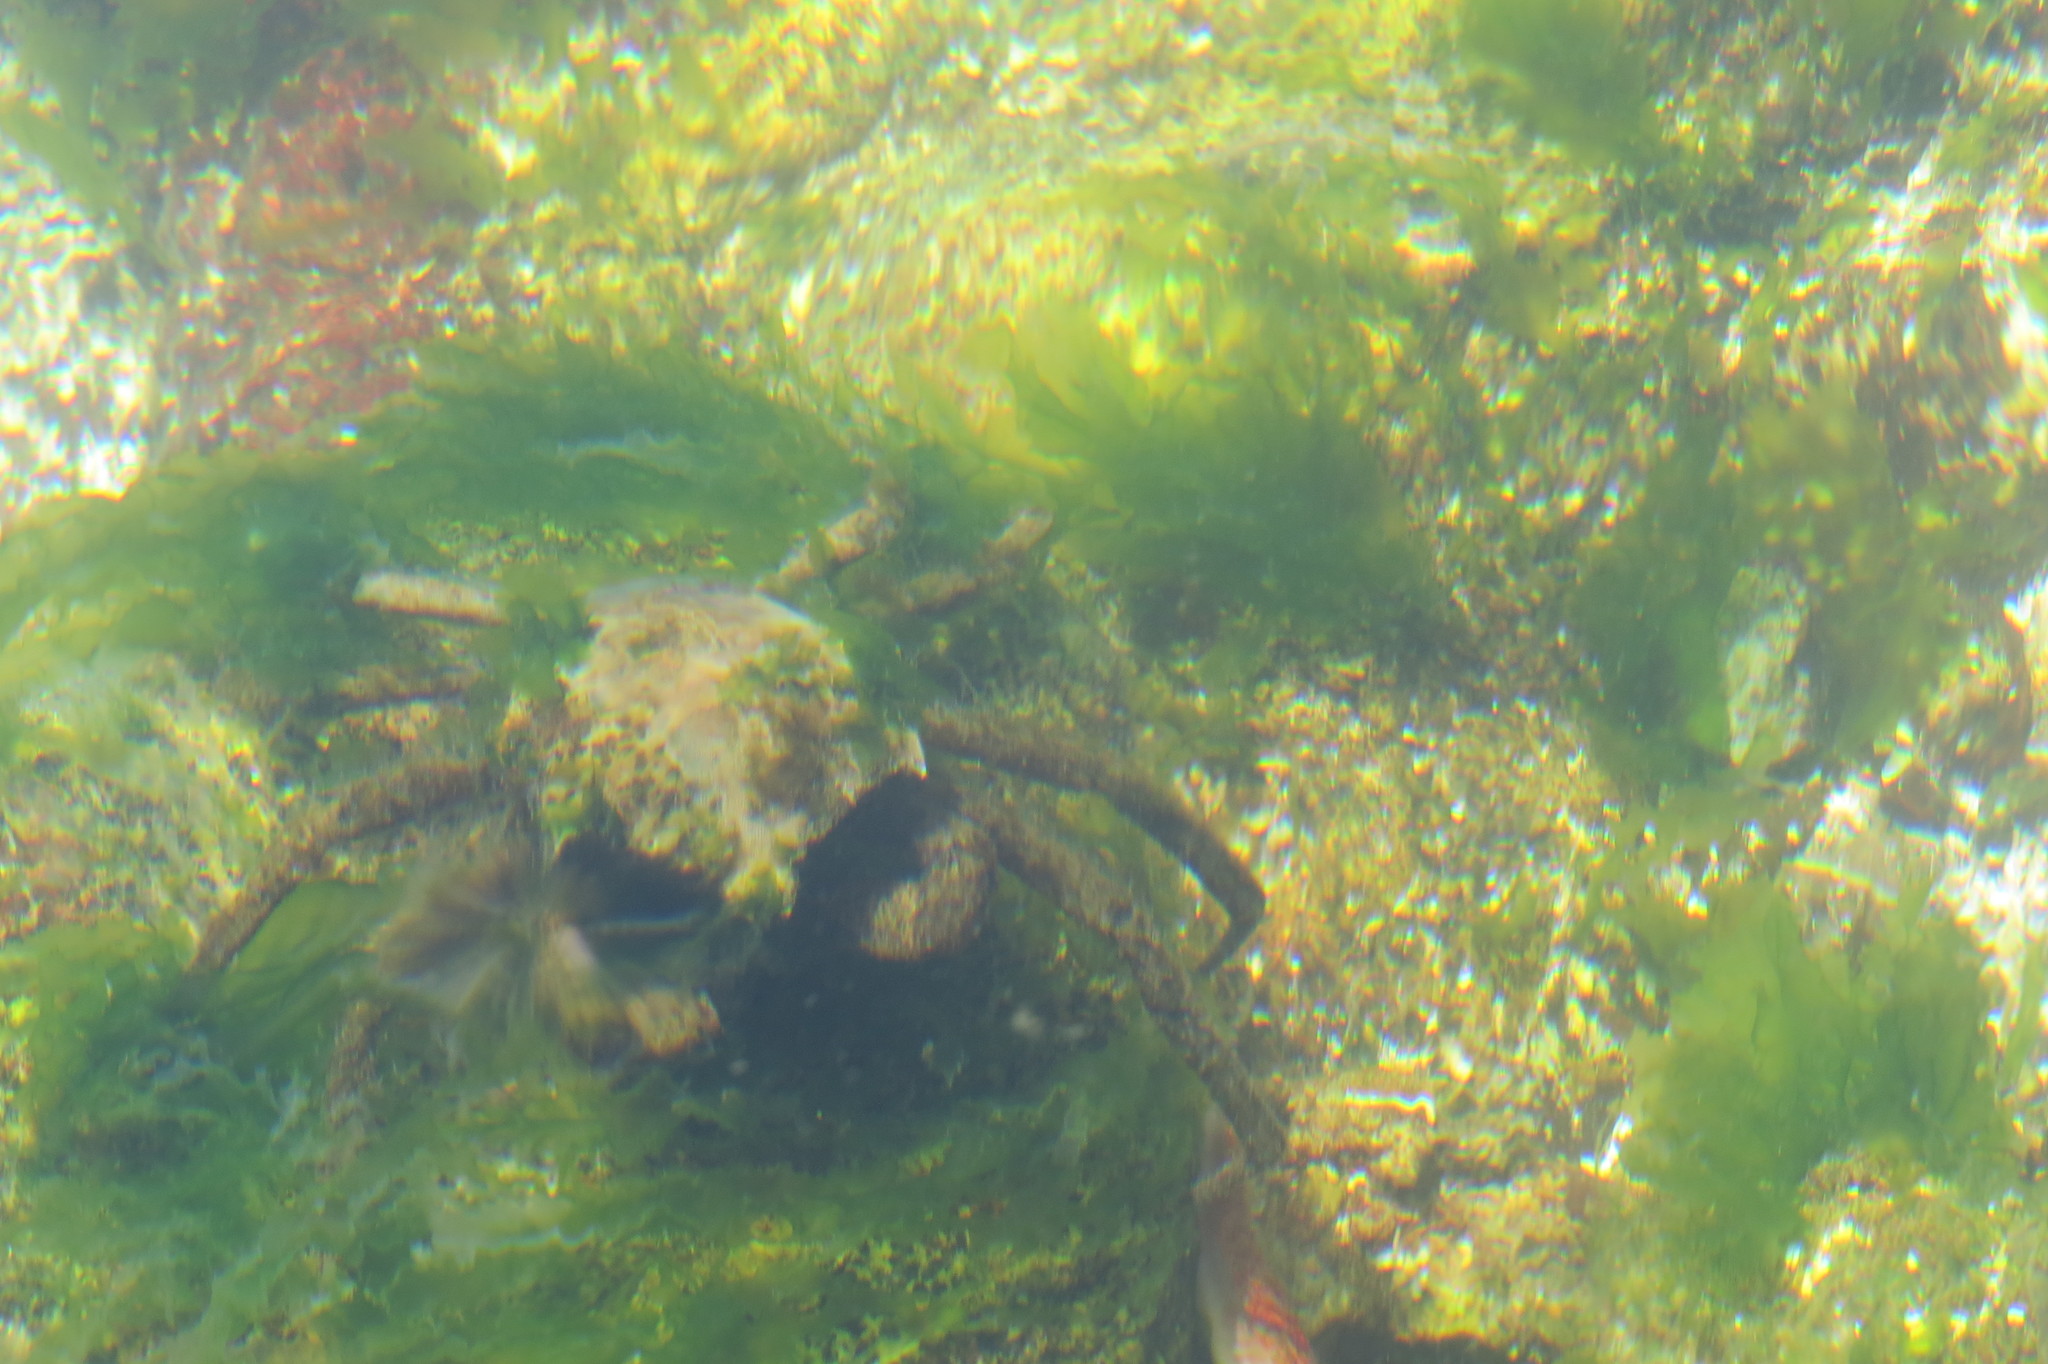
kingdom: Animalia
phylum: Arthropoda
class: Malacostraca
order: Decapoda
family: Epialtidae
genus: Pugettia
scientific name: Pugettia producta
